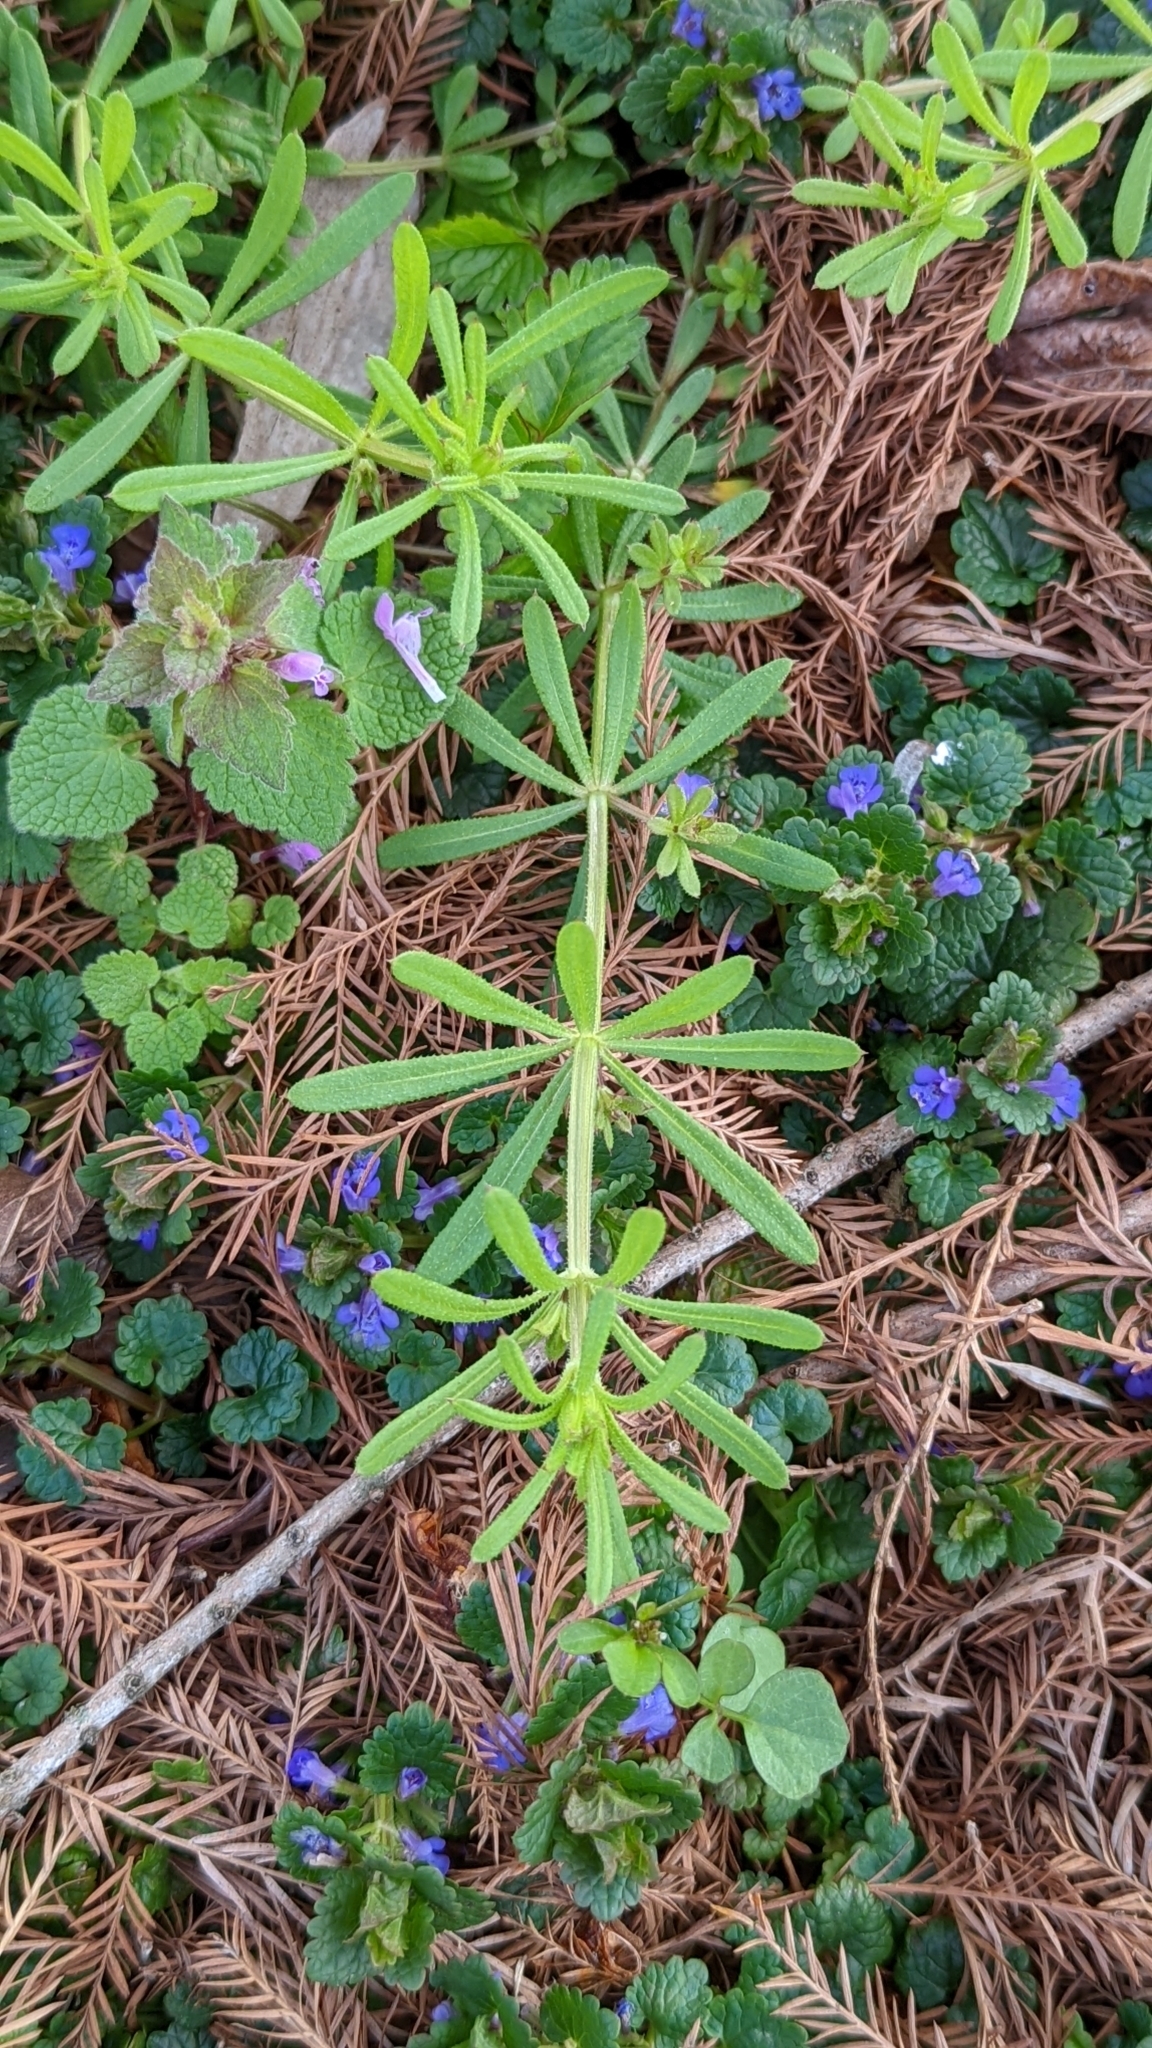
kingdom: Plantae
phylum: Tracheophyta
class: Magnoliopsida
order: Gentianales
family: Rubiaceae
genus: Galium
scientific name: Galium aparine
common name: Cleavers
